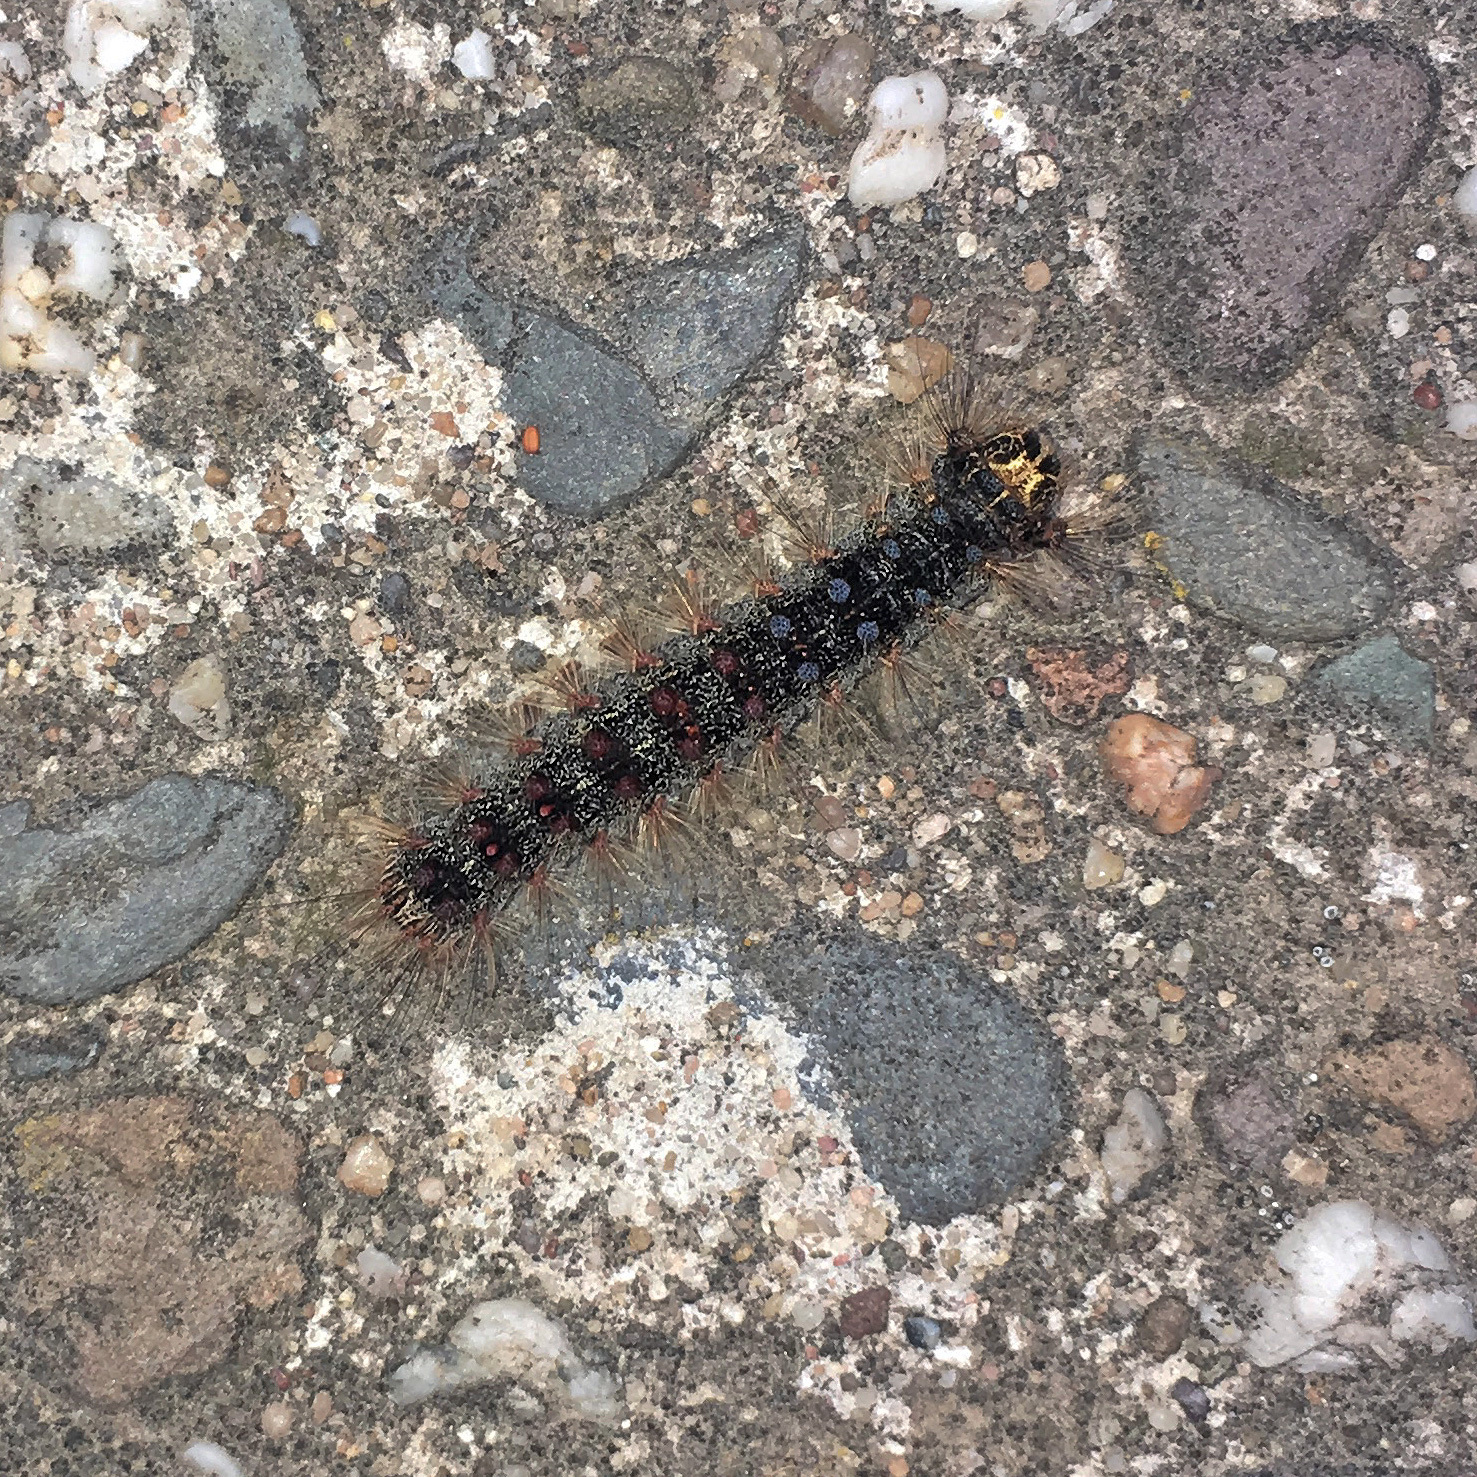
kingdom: Animalia
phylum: Arthropoda
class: Insecta
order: Lepidoptera
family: Erebidae
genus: Lymantria
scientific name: Lymantria dispar
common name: Gypsy moth
